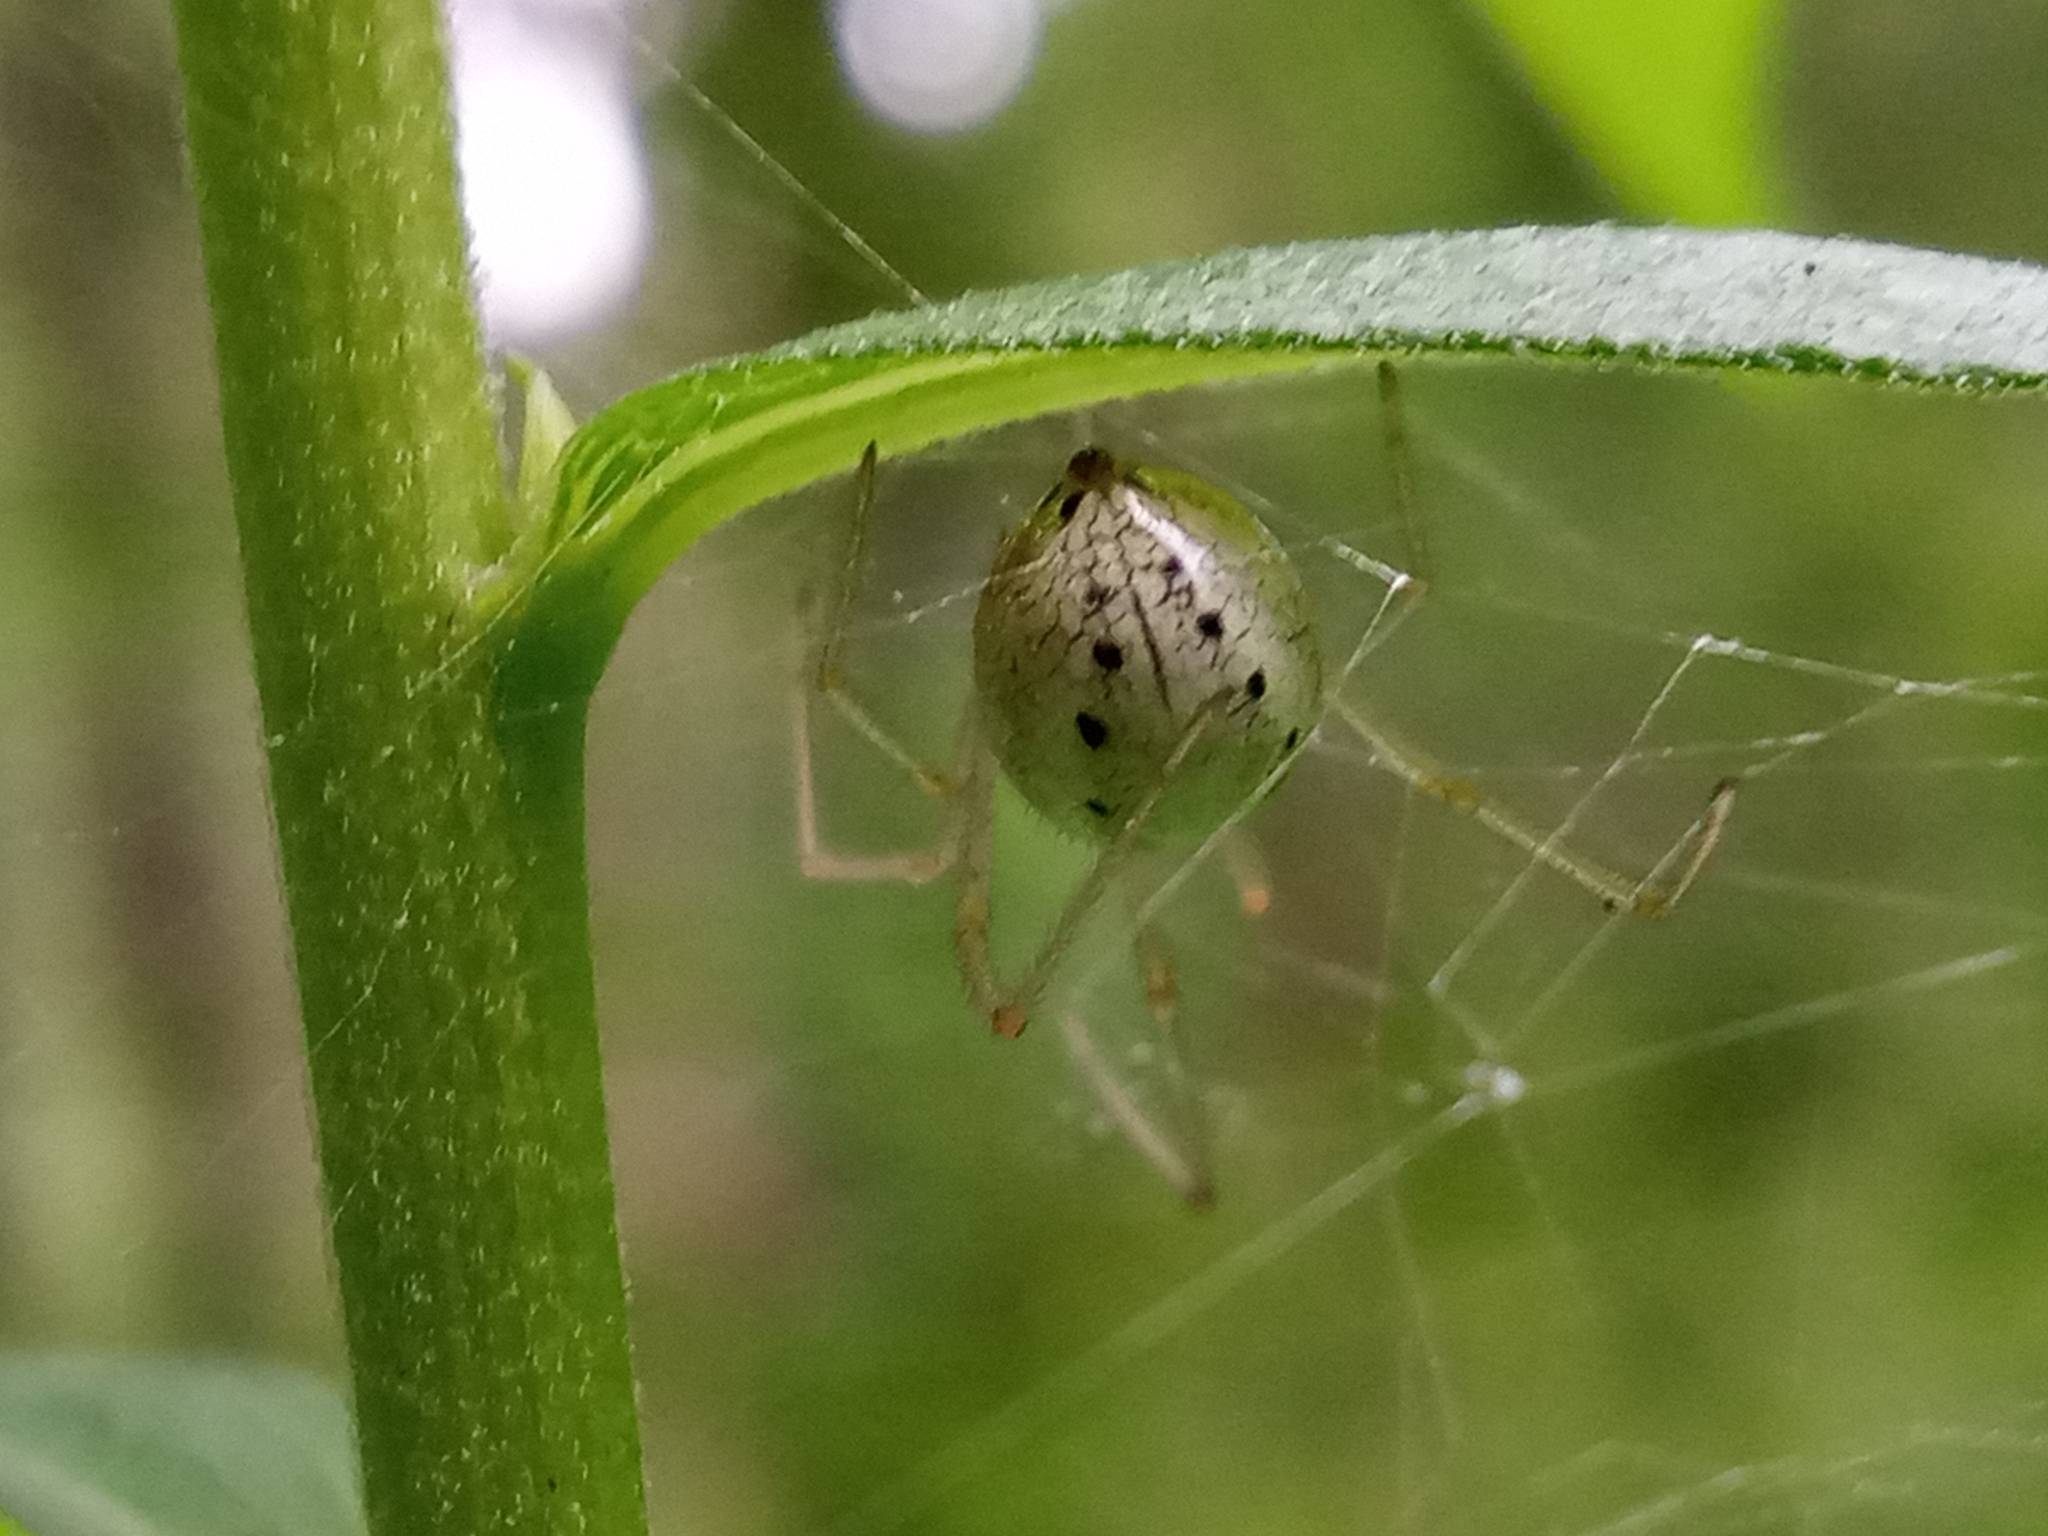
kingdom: Animalia
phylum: Arthropoda
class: Arachnida
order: Araneae
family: Theridiidae
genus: Enoplognatha
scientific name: Enoplognatha ovata
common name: Common candy-striped spider
